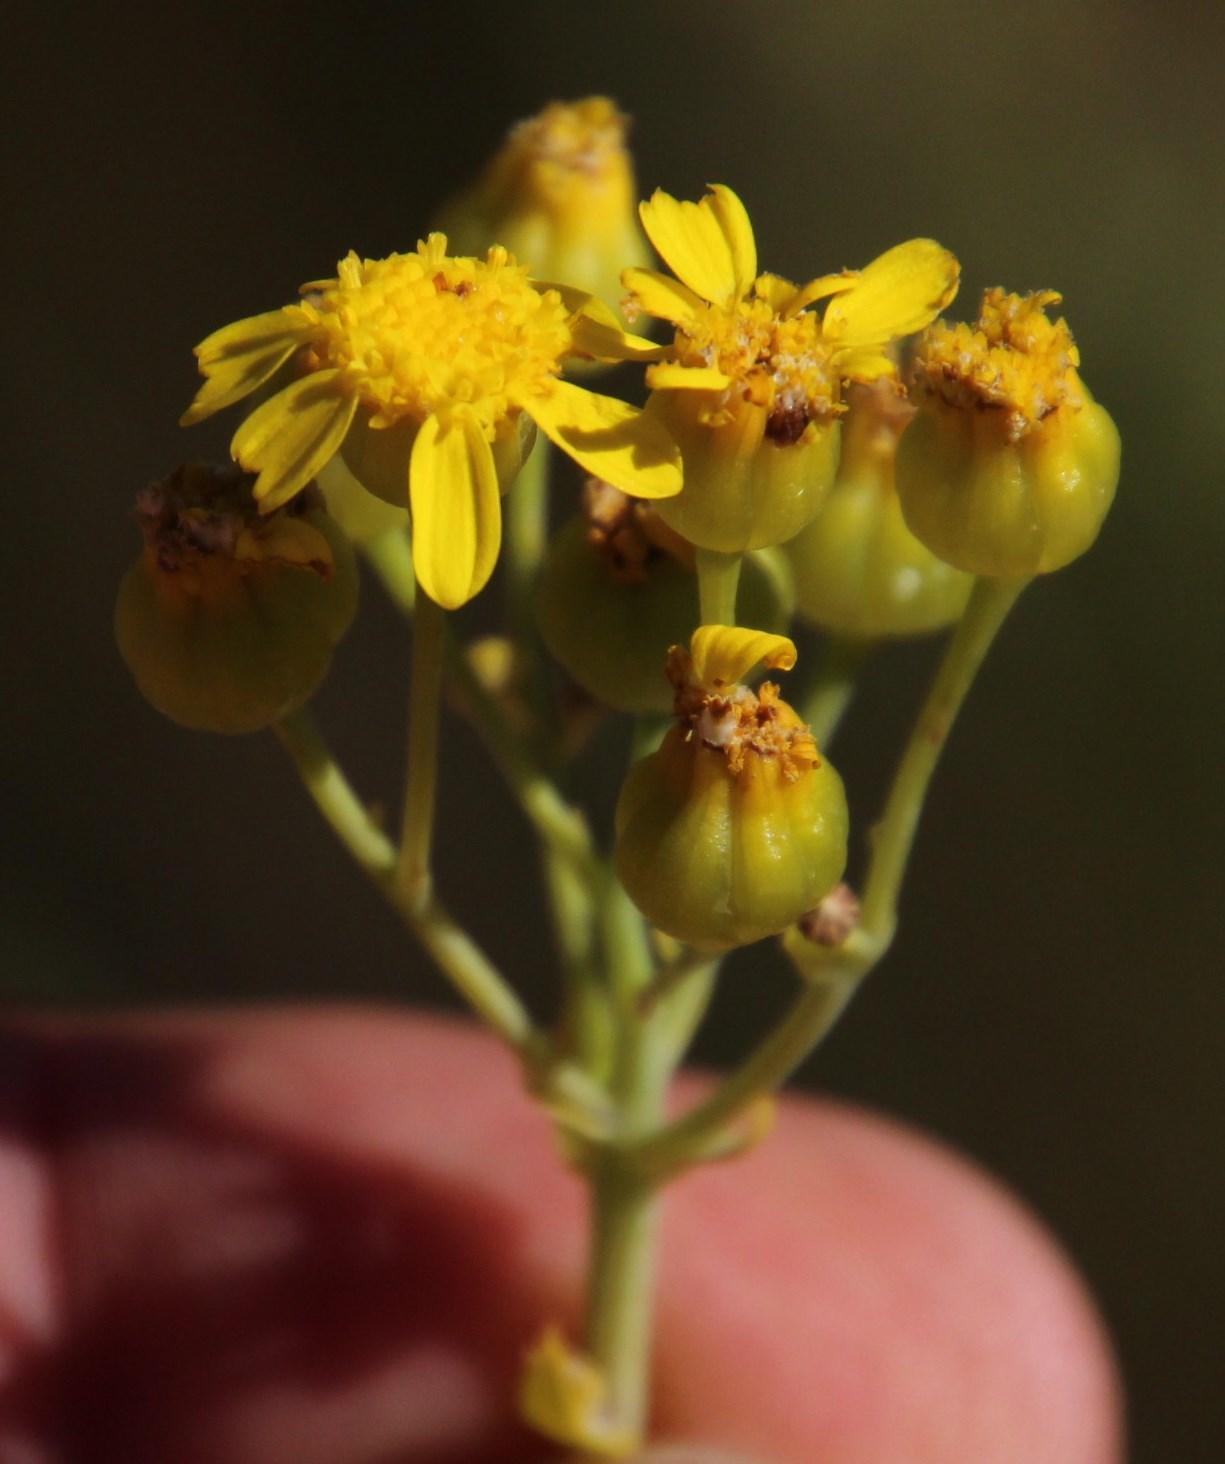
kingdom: Plantae
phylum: Tracheophyta
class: Magnoliopsida
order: Asterales
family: Asteraceae
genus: Othonna
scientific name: Othonna parviflora
